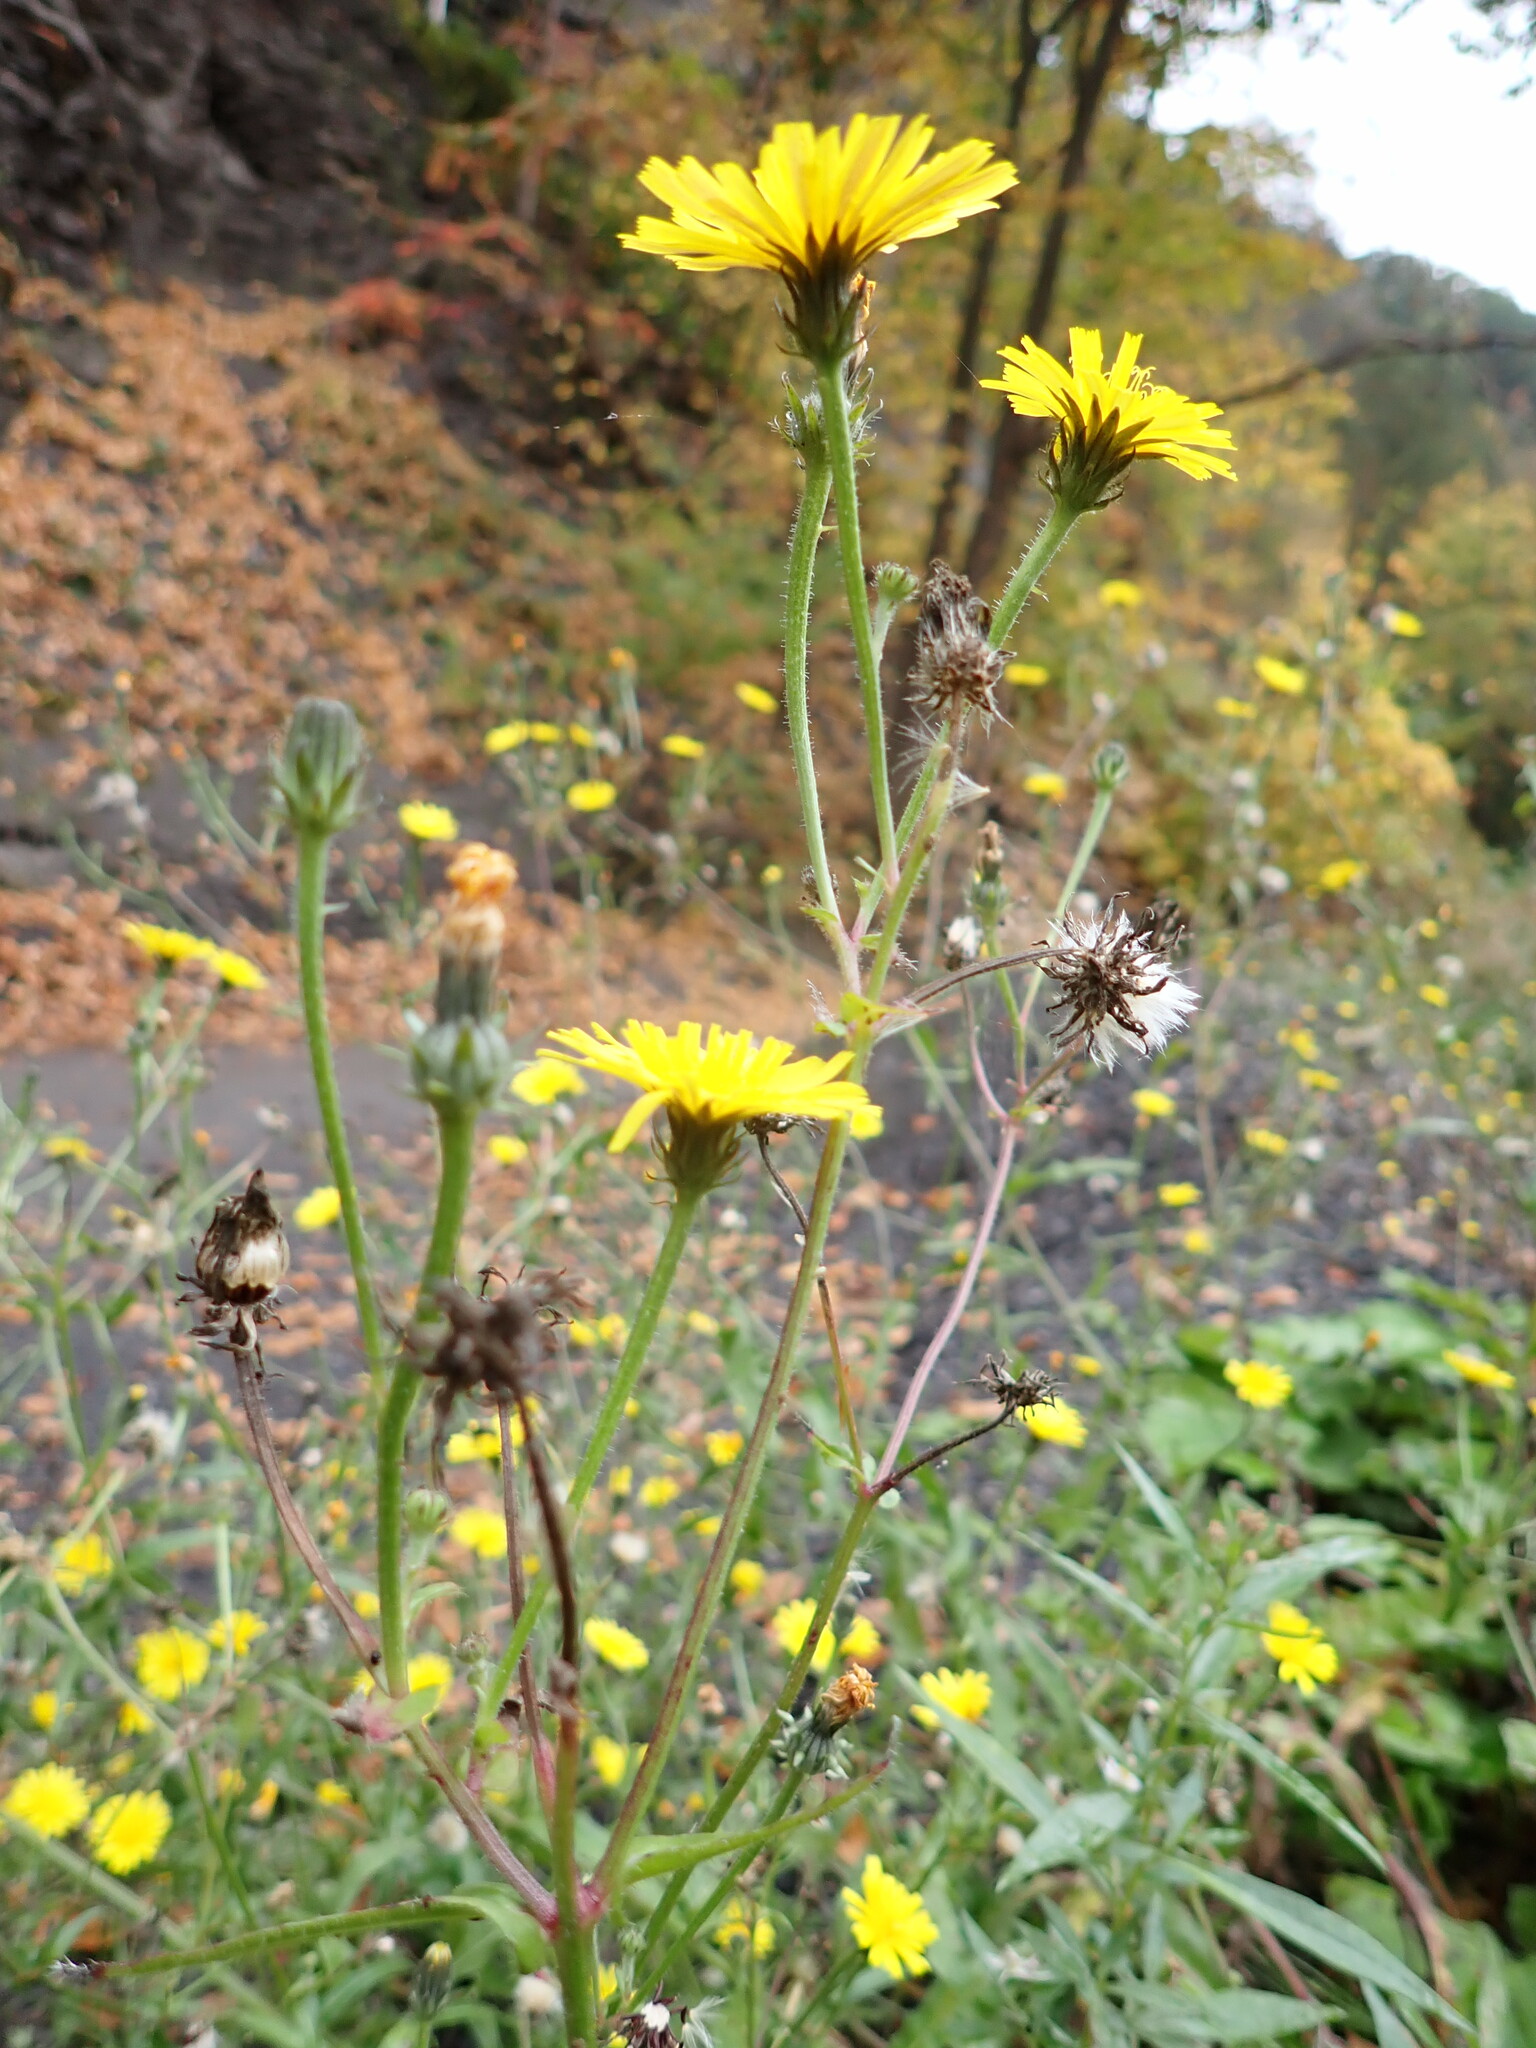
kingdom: Plantae
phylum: Tracheophyta
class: Magnoliopsida
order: Asterales
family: Asteraceae
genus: Picris
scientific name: Picris hieracioides
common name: Hawkweed oxtongue
